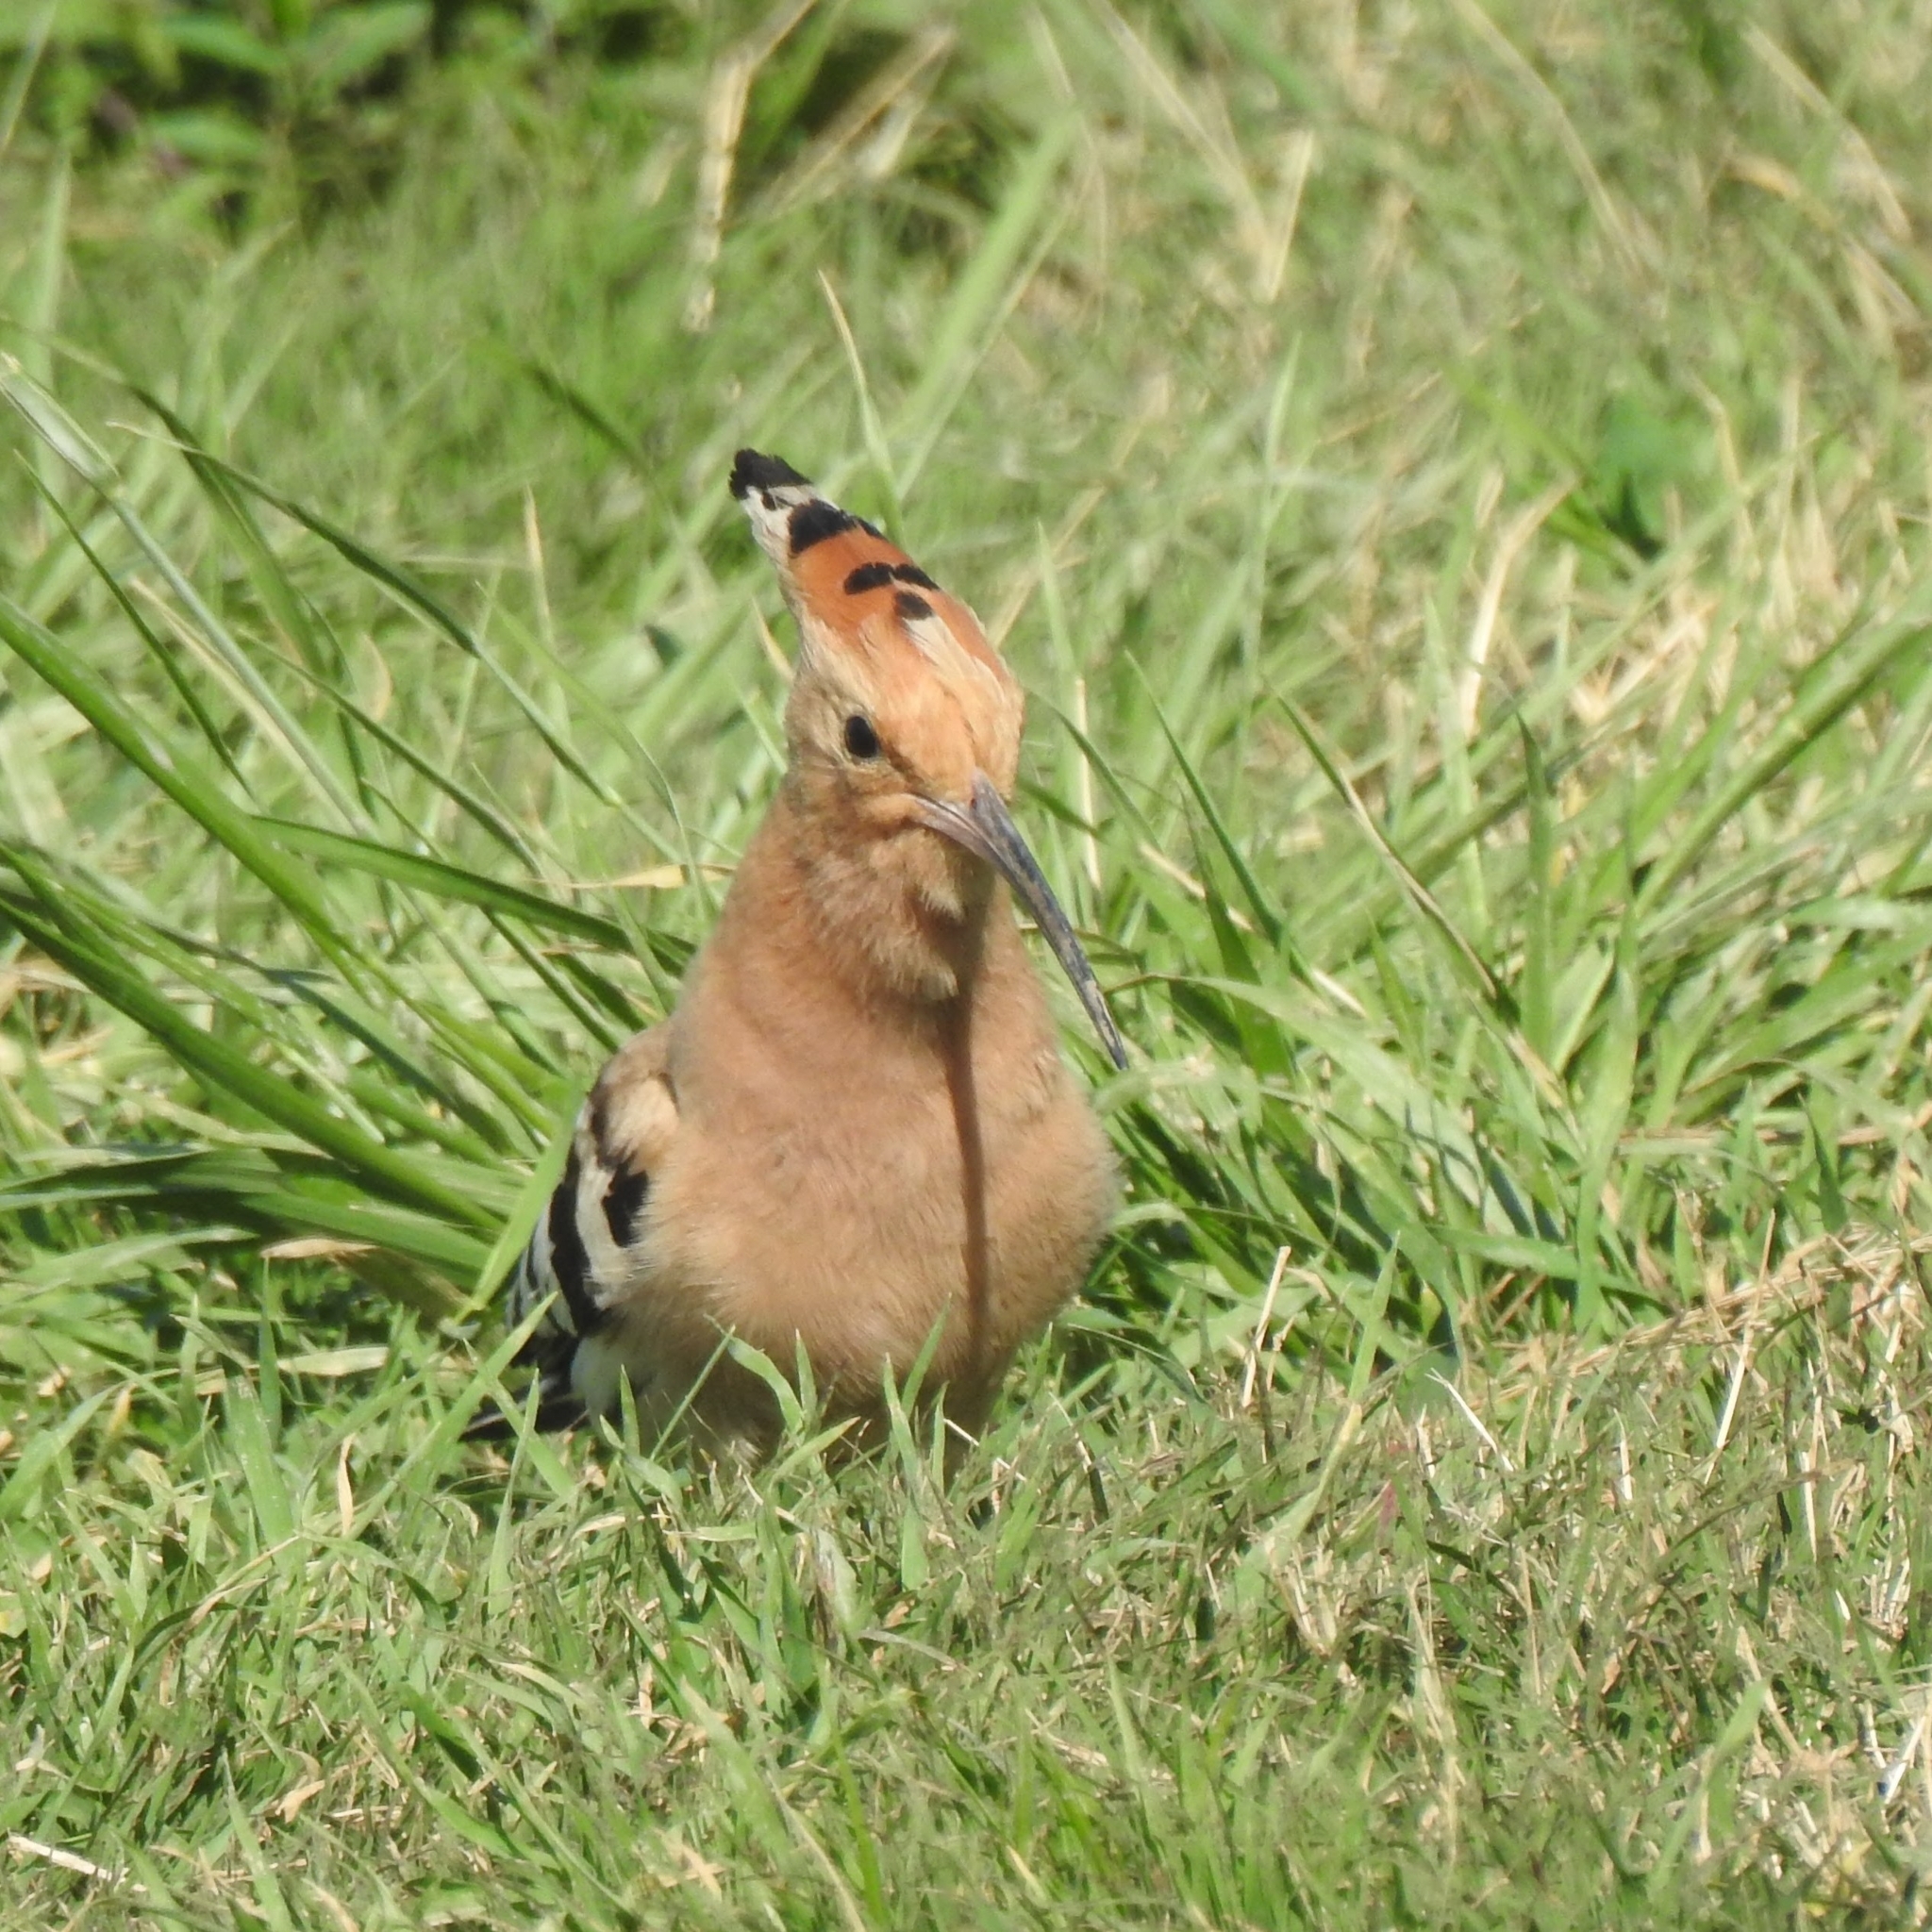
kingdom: Animalia
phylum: Chordata
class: Aves
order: Bucerotiformes
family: Upupidae
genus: Upupa
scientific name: Upupa epops
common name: Eurasian hoopoe
